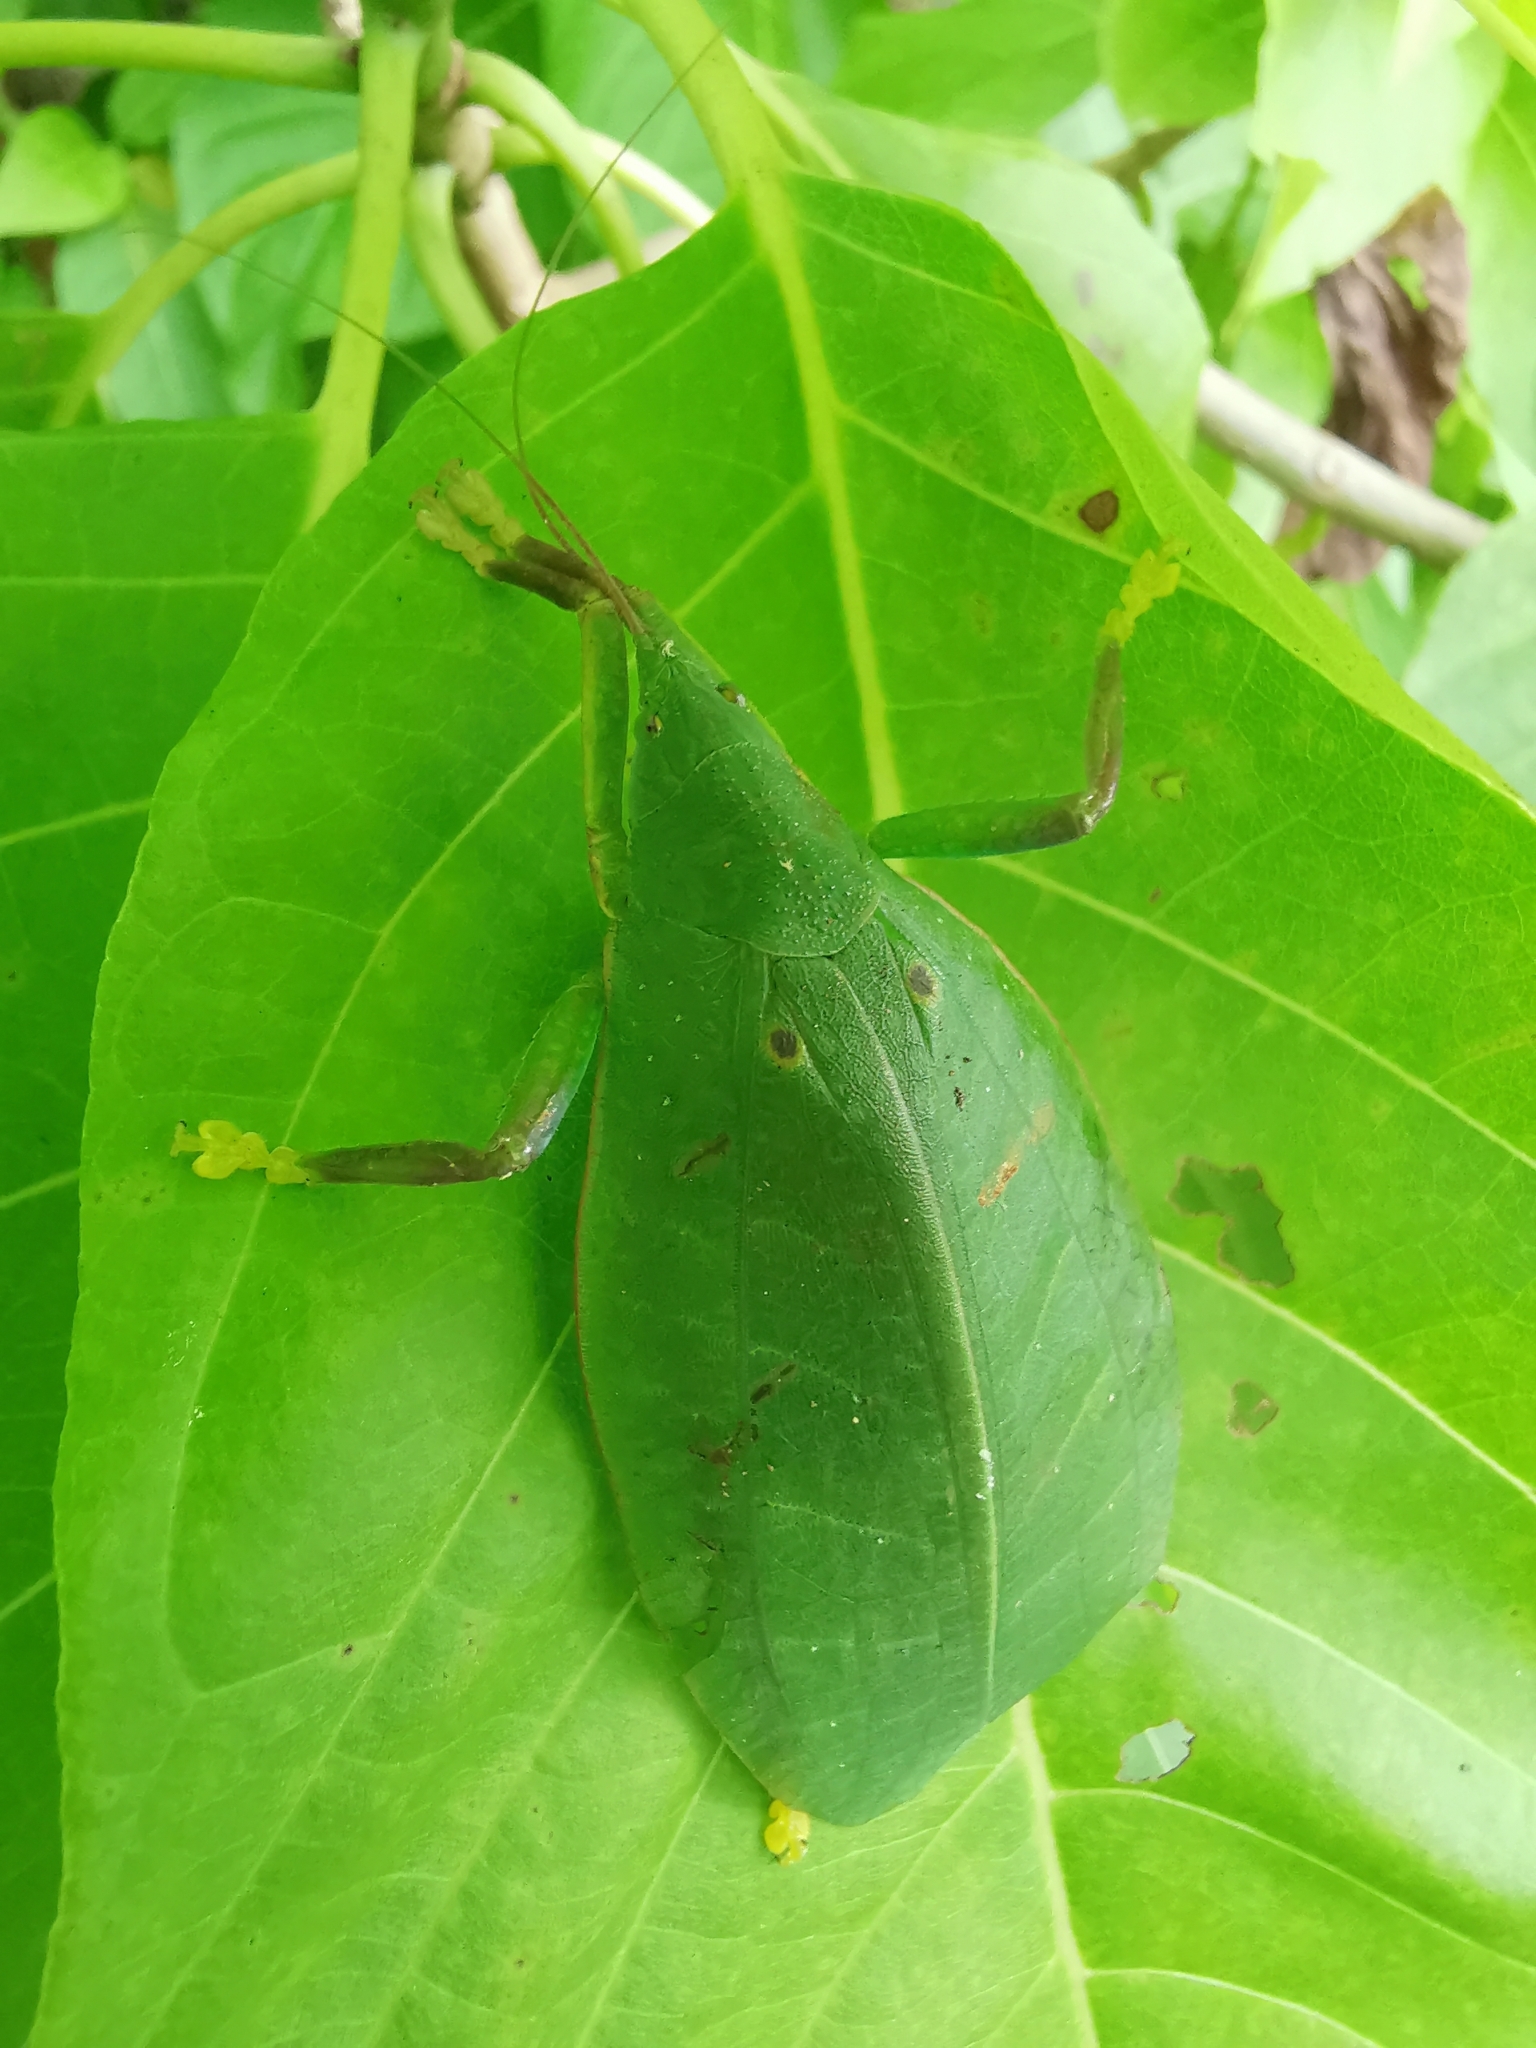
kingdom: Animalia
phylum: Arthropoda
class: Insecta
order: Orthoptera
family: Tettigoniidae
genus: Phyllomimus
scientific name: Phyllomimus elliptifolius
